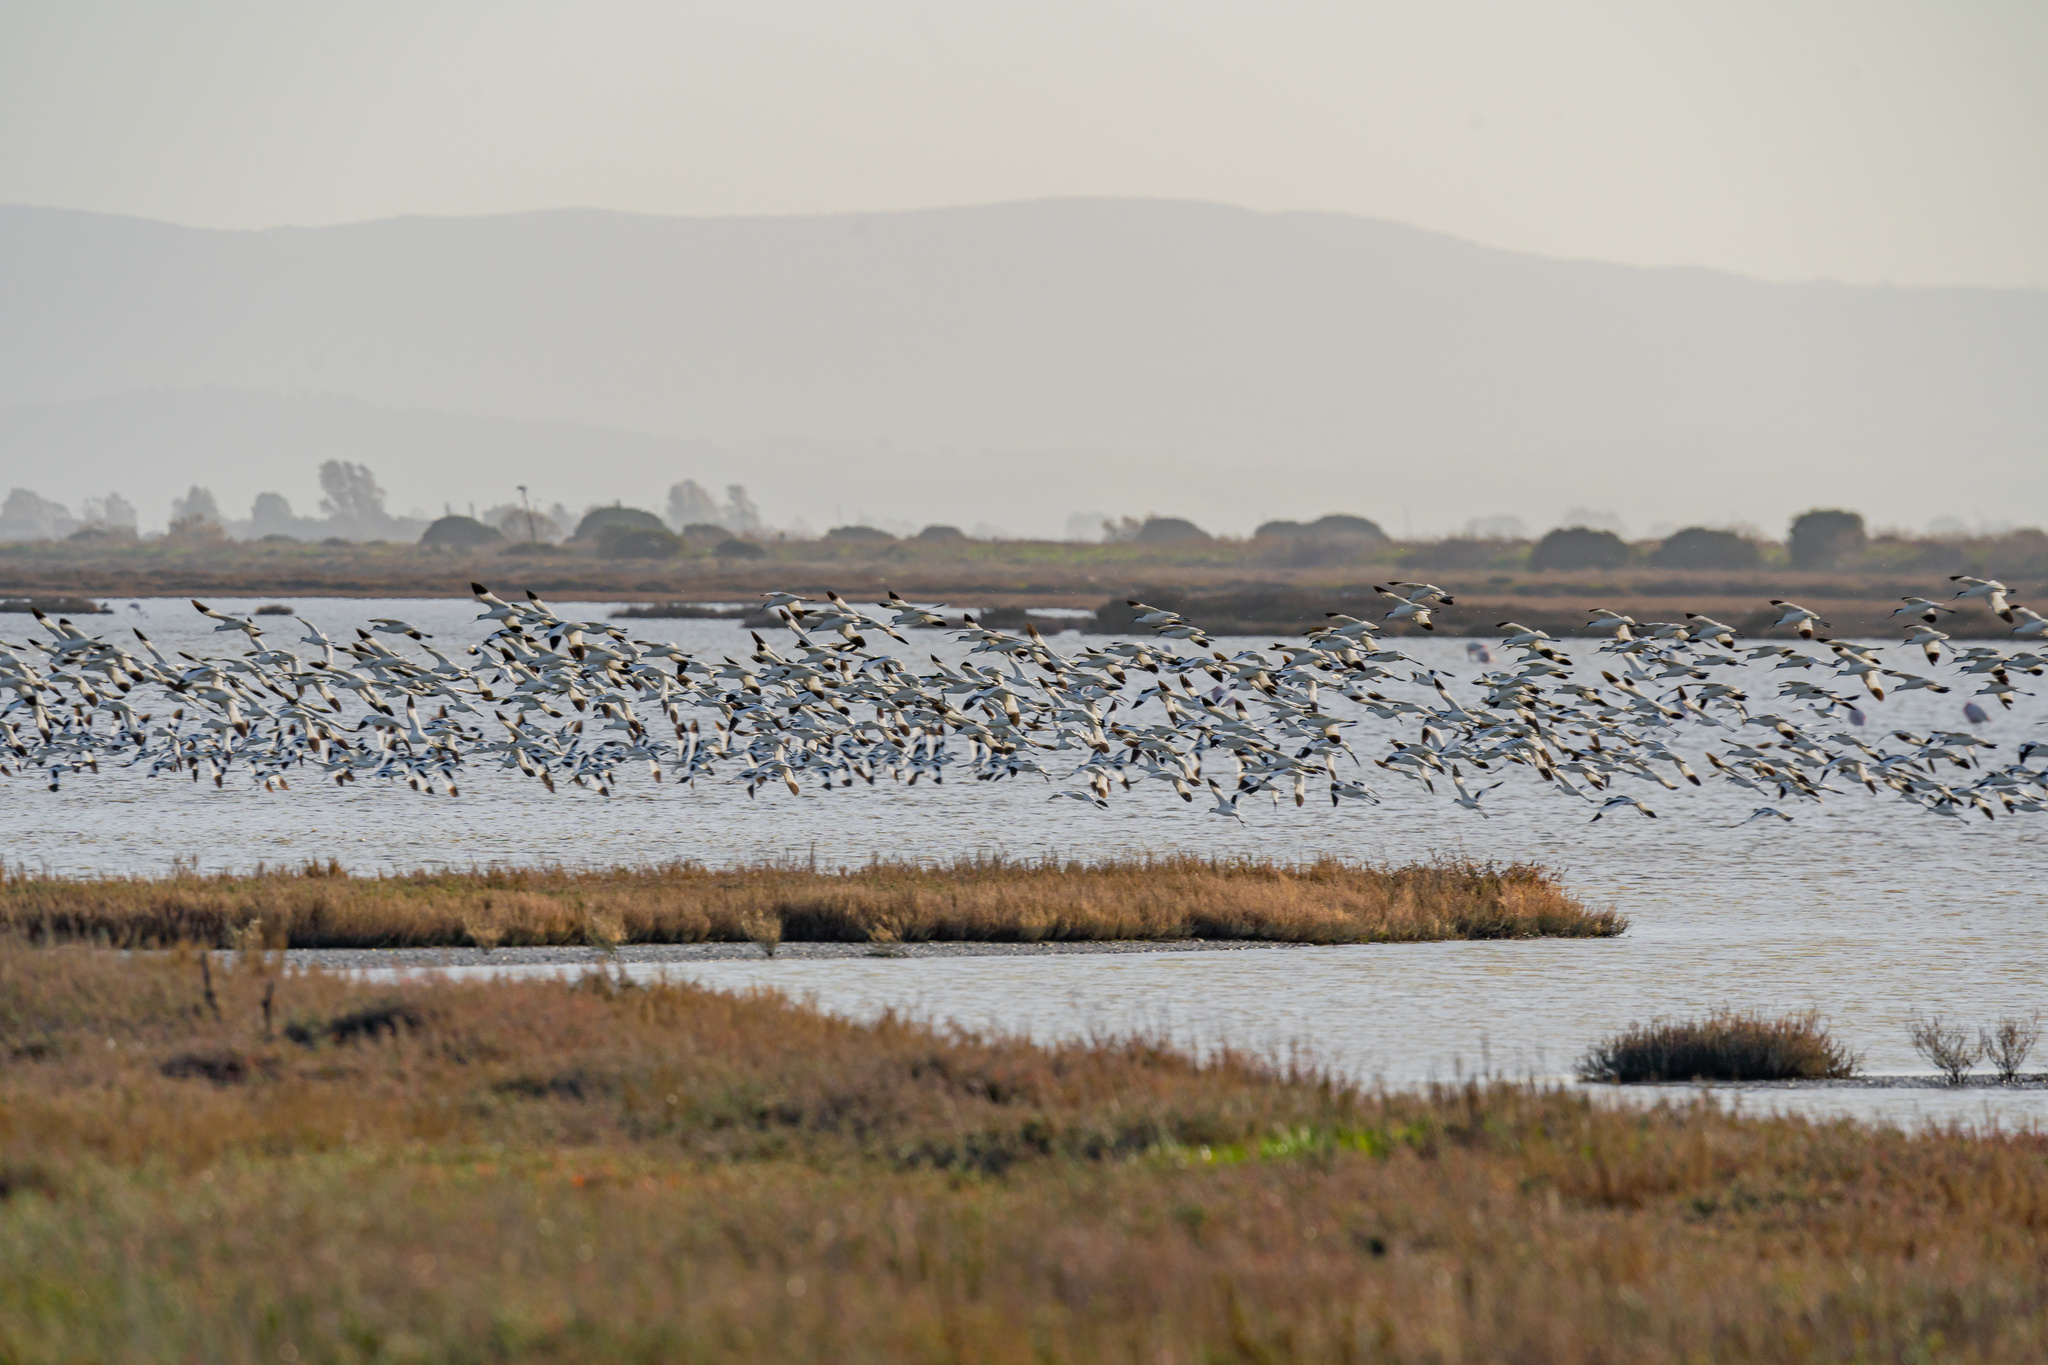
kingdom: Animalia
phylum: Chordata
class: Aves
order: Charadriiformes
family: Recurvirostridae
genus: Recurvirostra
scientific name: Recurvirostra avosetta
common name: Pied avocet
